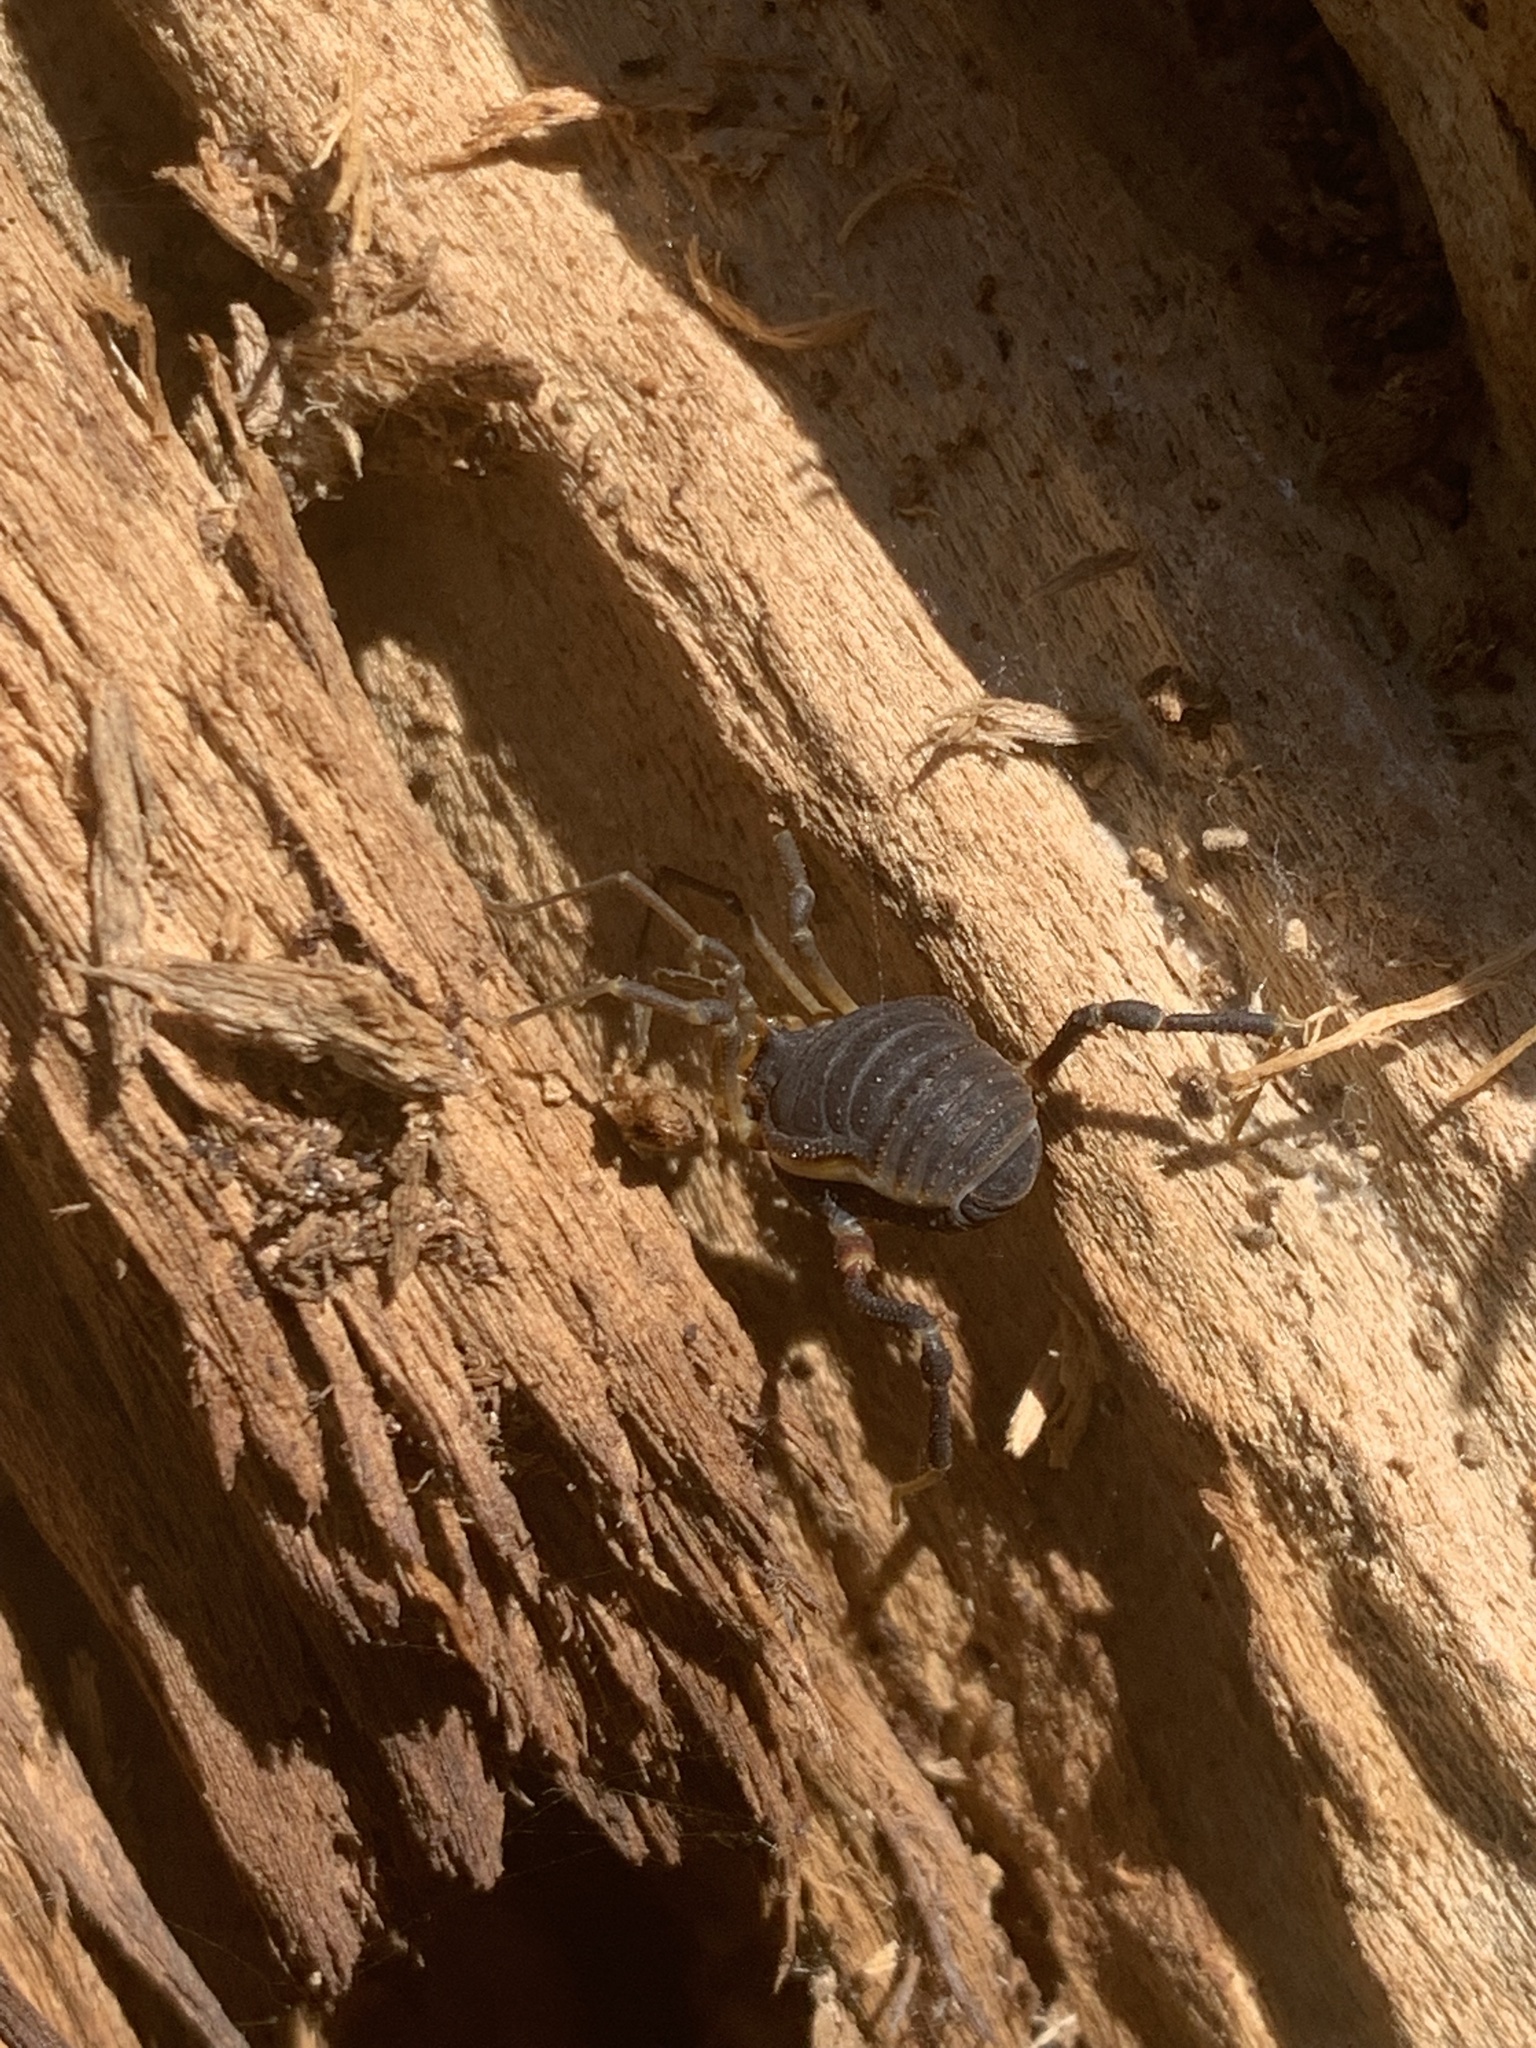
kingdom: Animalia
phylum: Arthropoda
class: Arachnida
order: Opiliones
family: Gonyleptidae
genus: Acanthopachylus
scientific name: Acanthopachylus robustus
